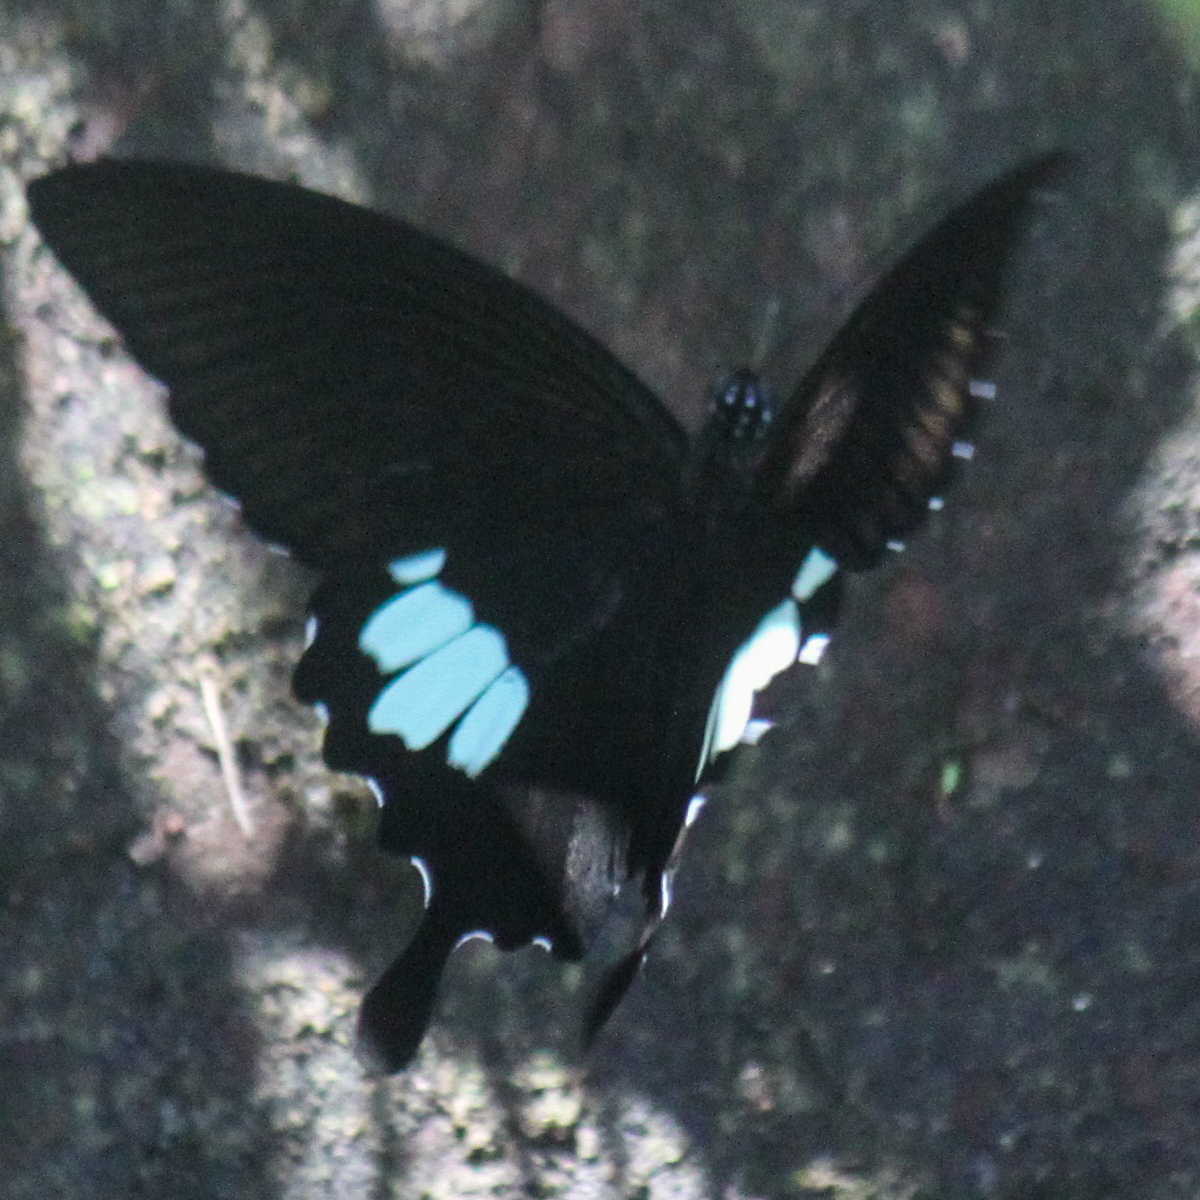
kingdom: Animalia
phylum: Arthropoda
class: Insecta
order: Lepidoptera
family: Papilionidae
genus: Atrophaneura
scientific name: Atrophaneura varuna
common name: Common batwing
